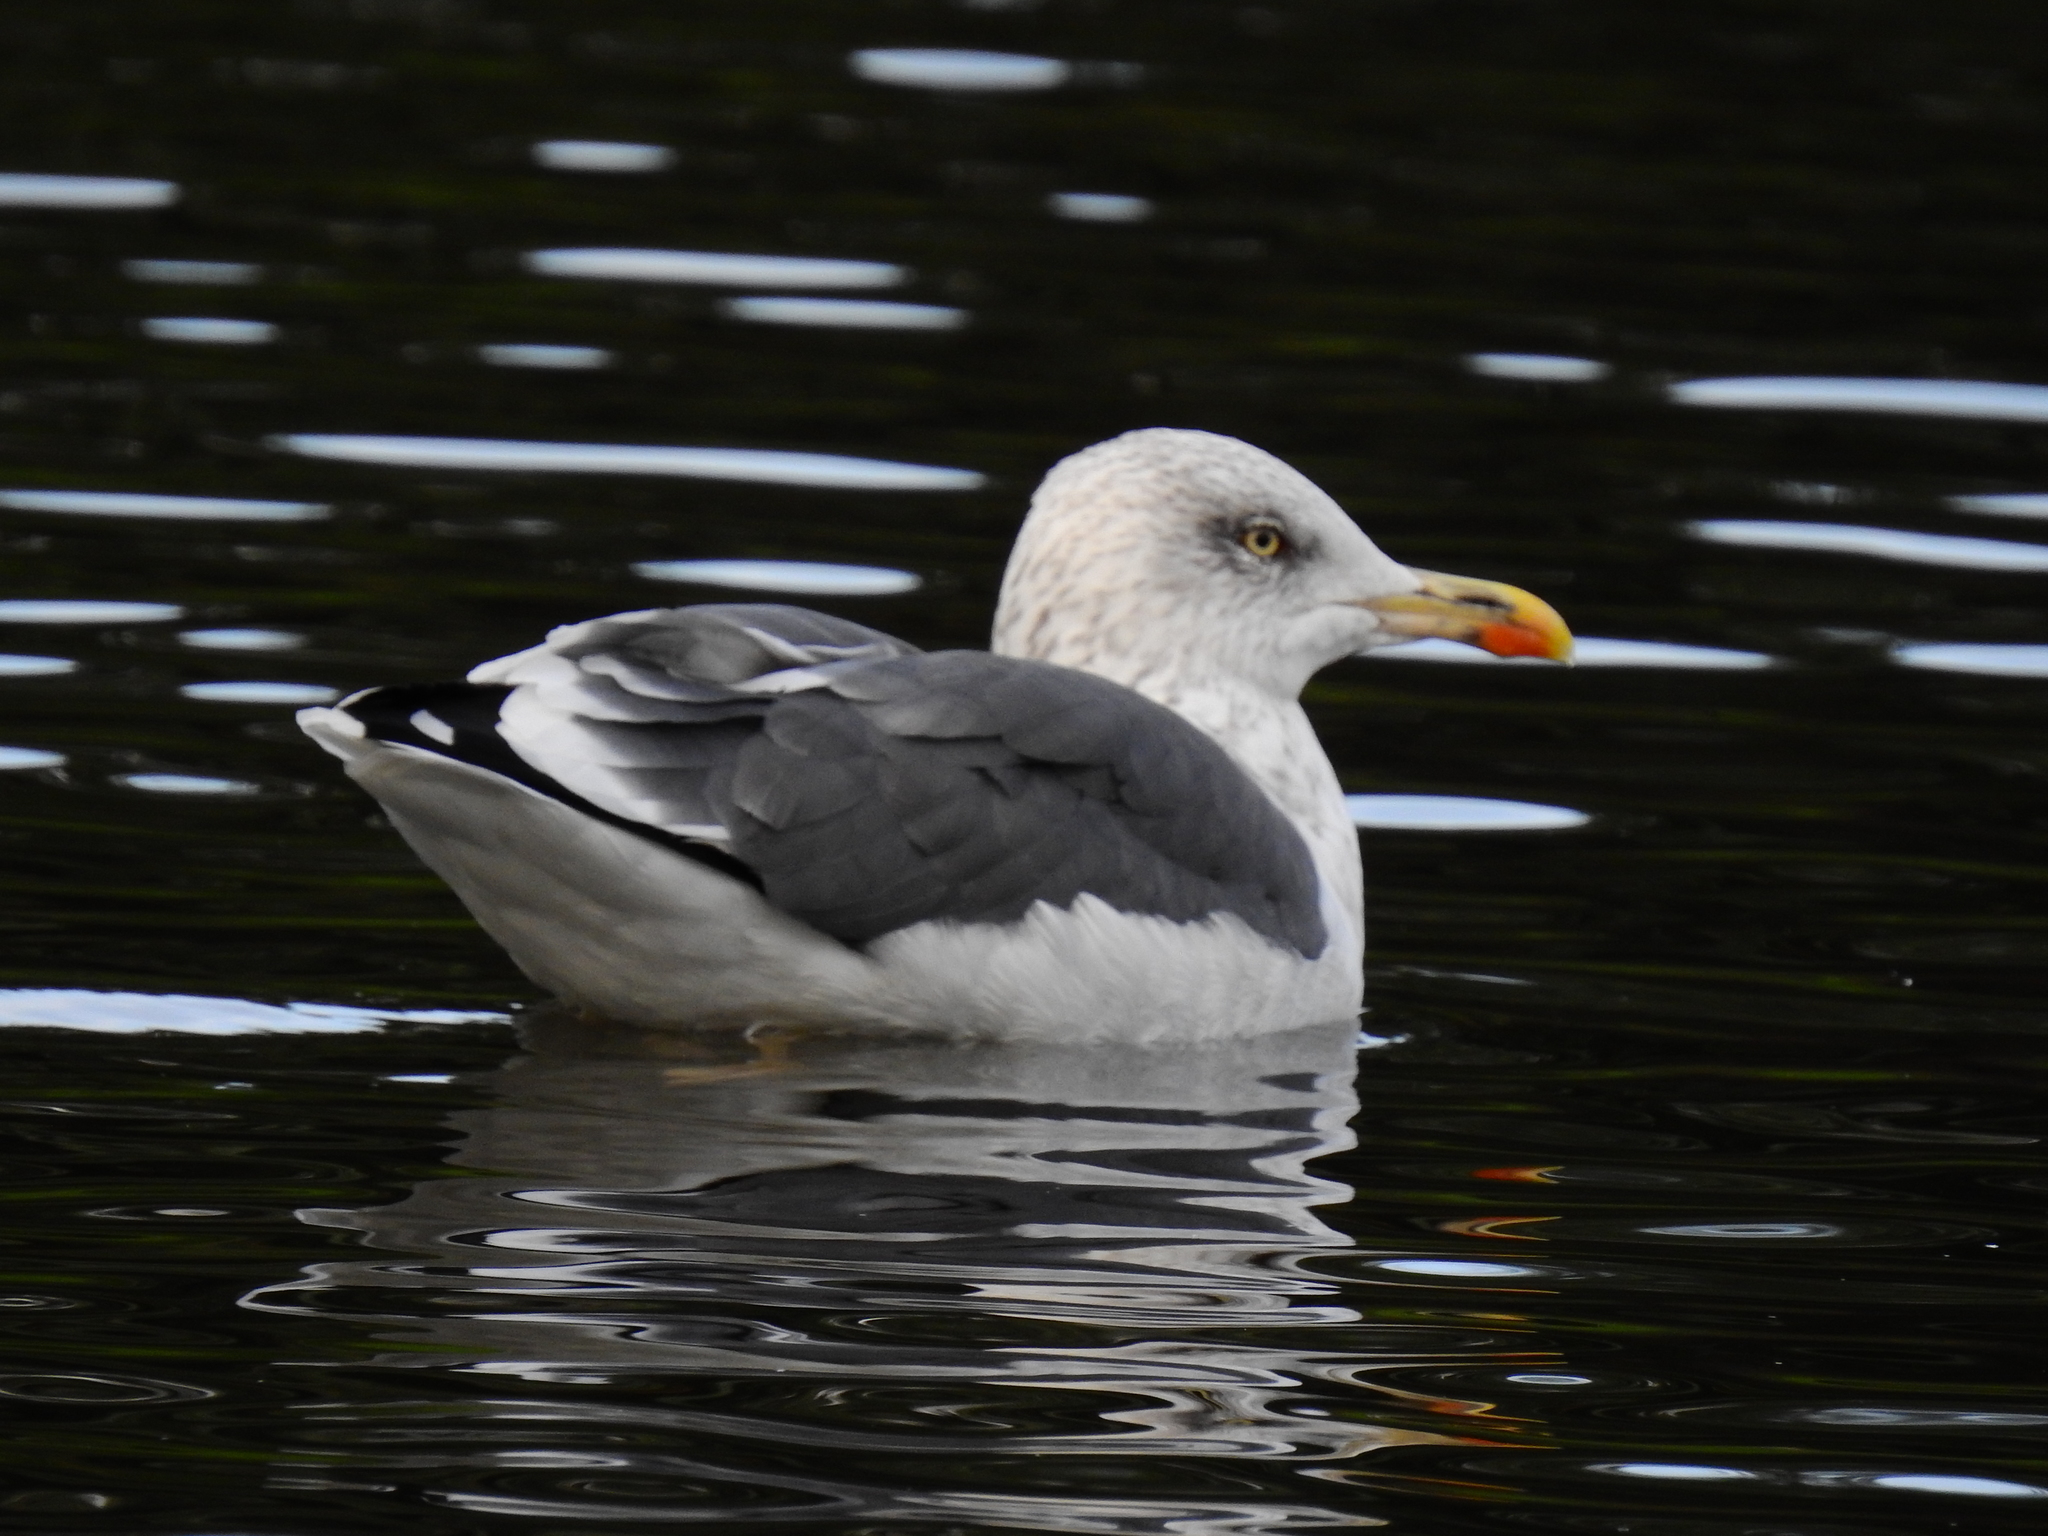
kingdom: Animalia
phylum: Chordata
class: Aves
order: Charadriiformes
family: Laridae
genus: Larus
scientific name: Larus fuscus
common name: Lesser black-backed gull
